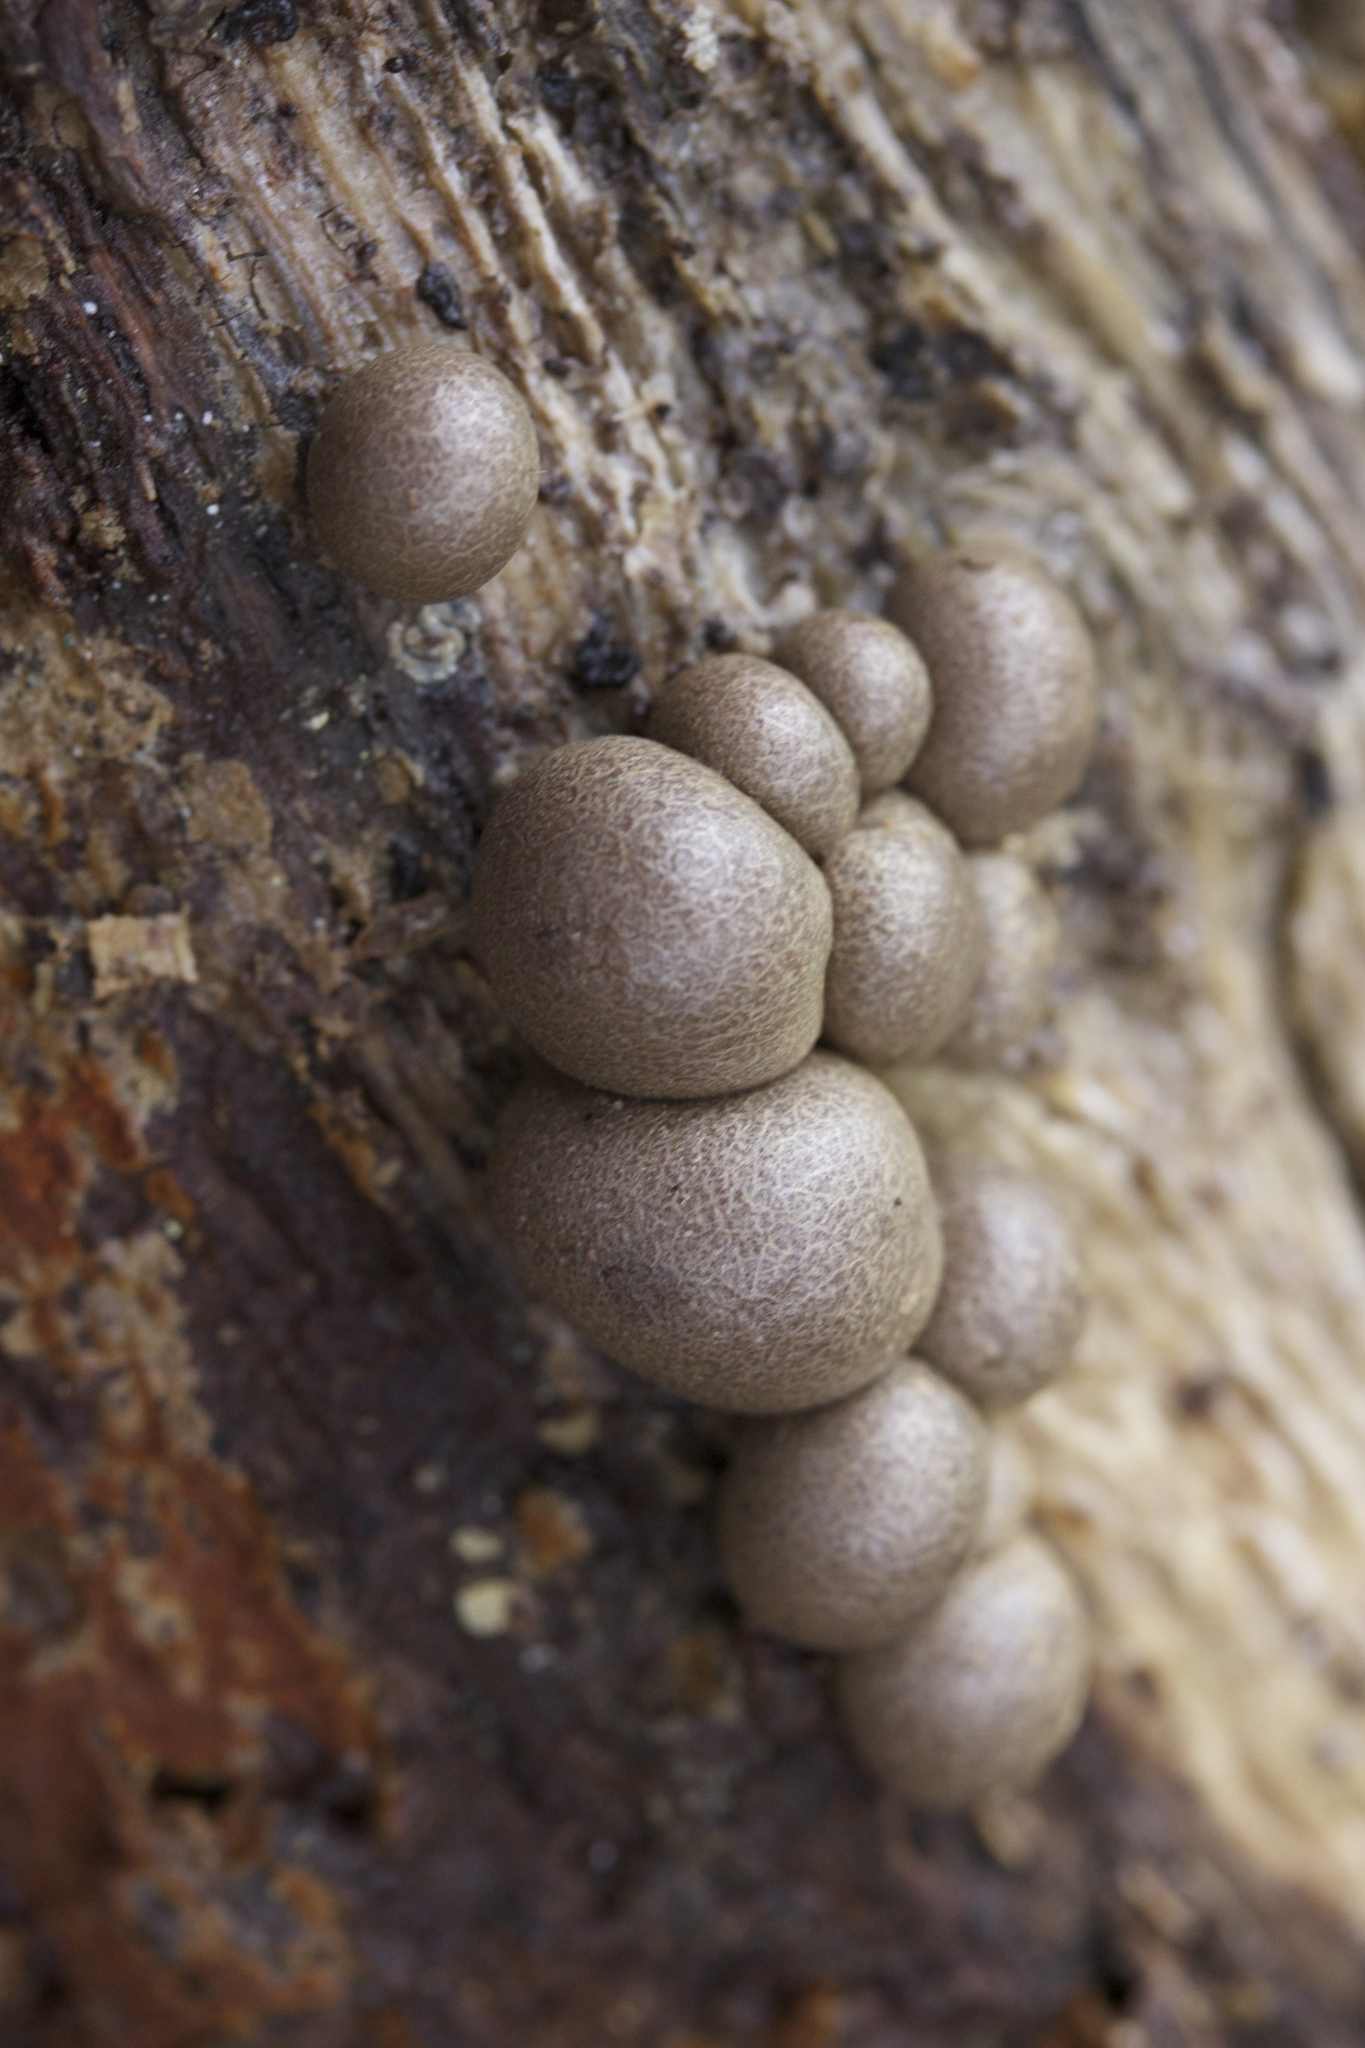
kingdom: Protozoa
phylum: Mycetozoa
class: Myxomycetes
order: Cribrariales
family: Tubiferaceae
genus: Lycogala
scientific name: Lycogala epidendrum
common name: Wolf's milk
